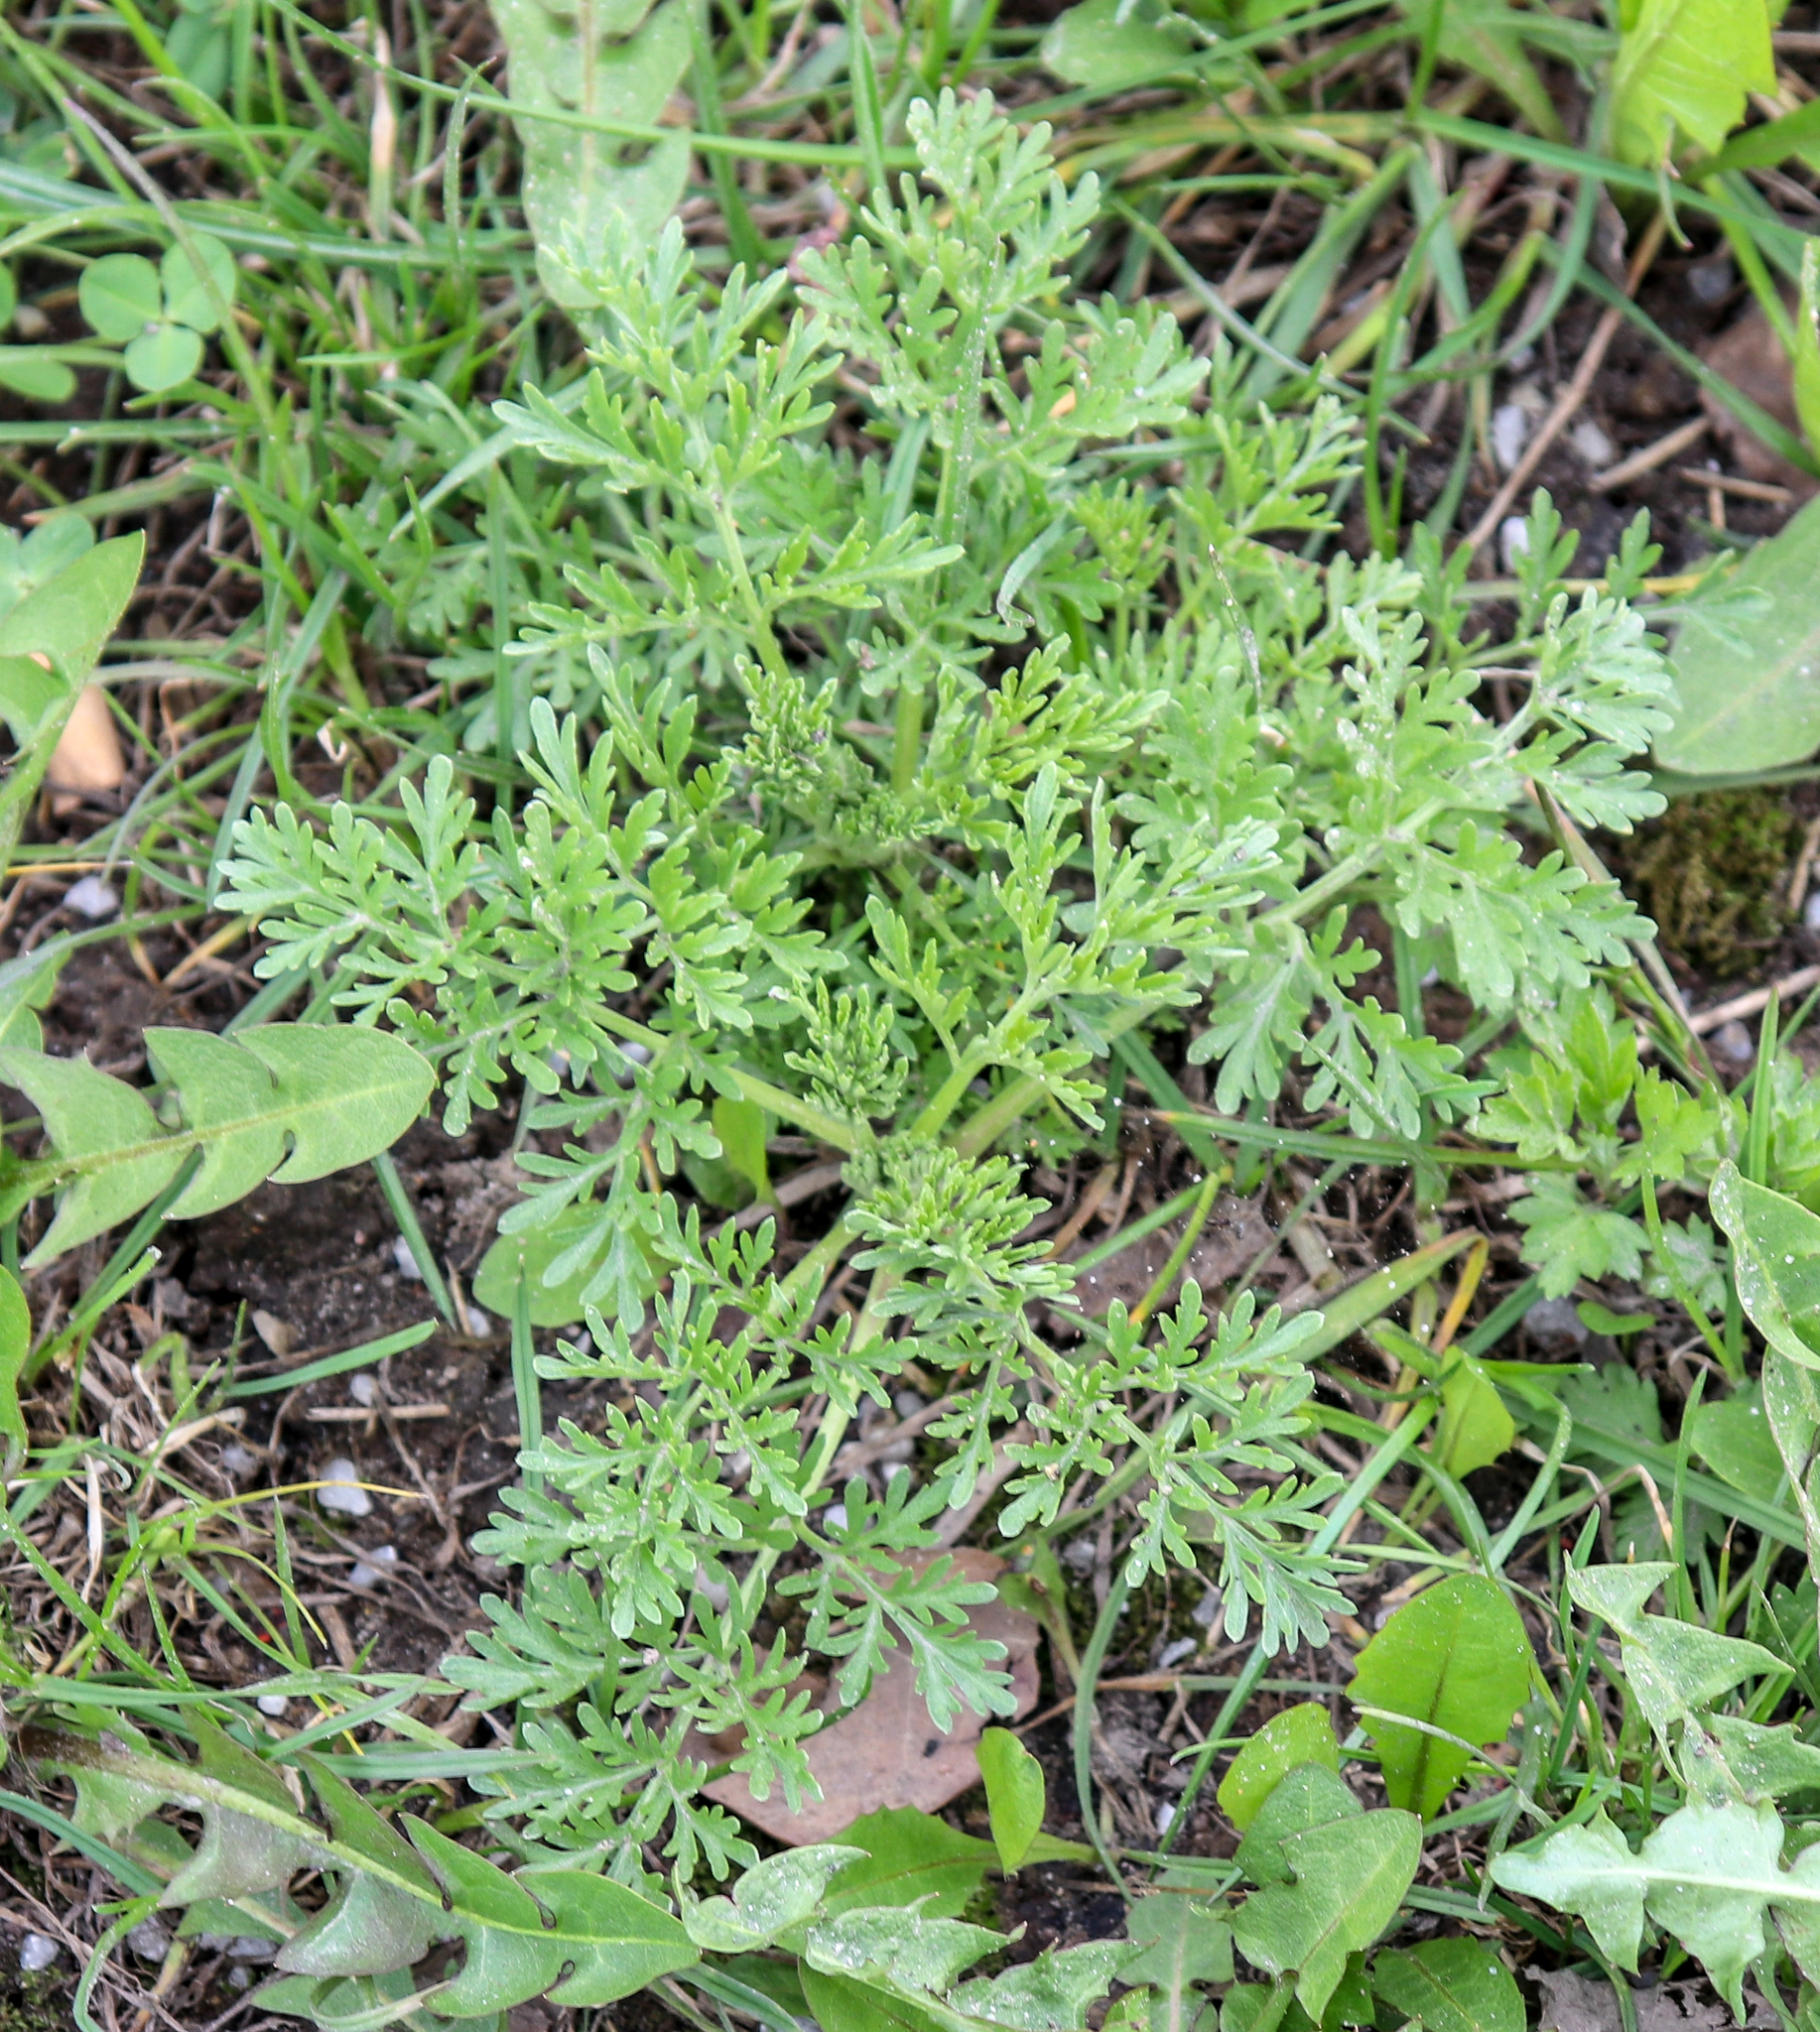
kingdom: Plantae
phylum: Tracheophyta
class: Magnoliopsida
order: Asterales
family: Asteraceae
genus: Artemisia
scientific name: Artemisia absinthium
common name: Wormwood
